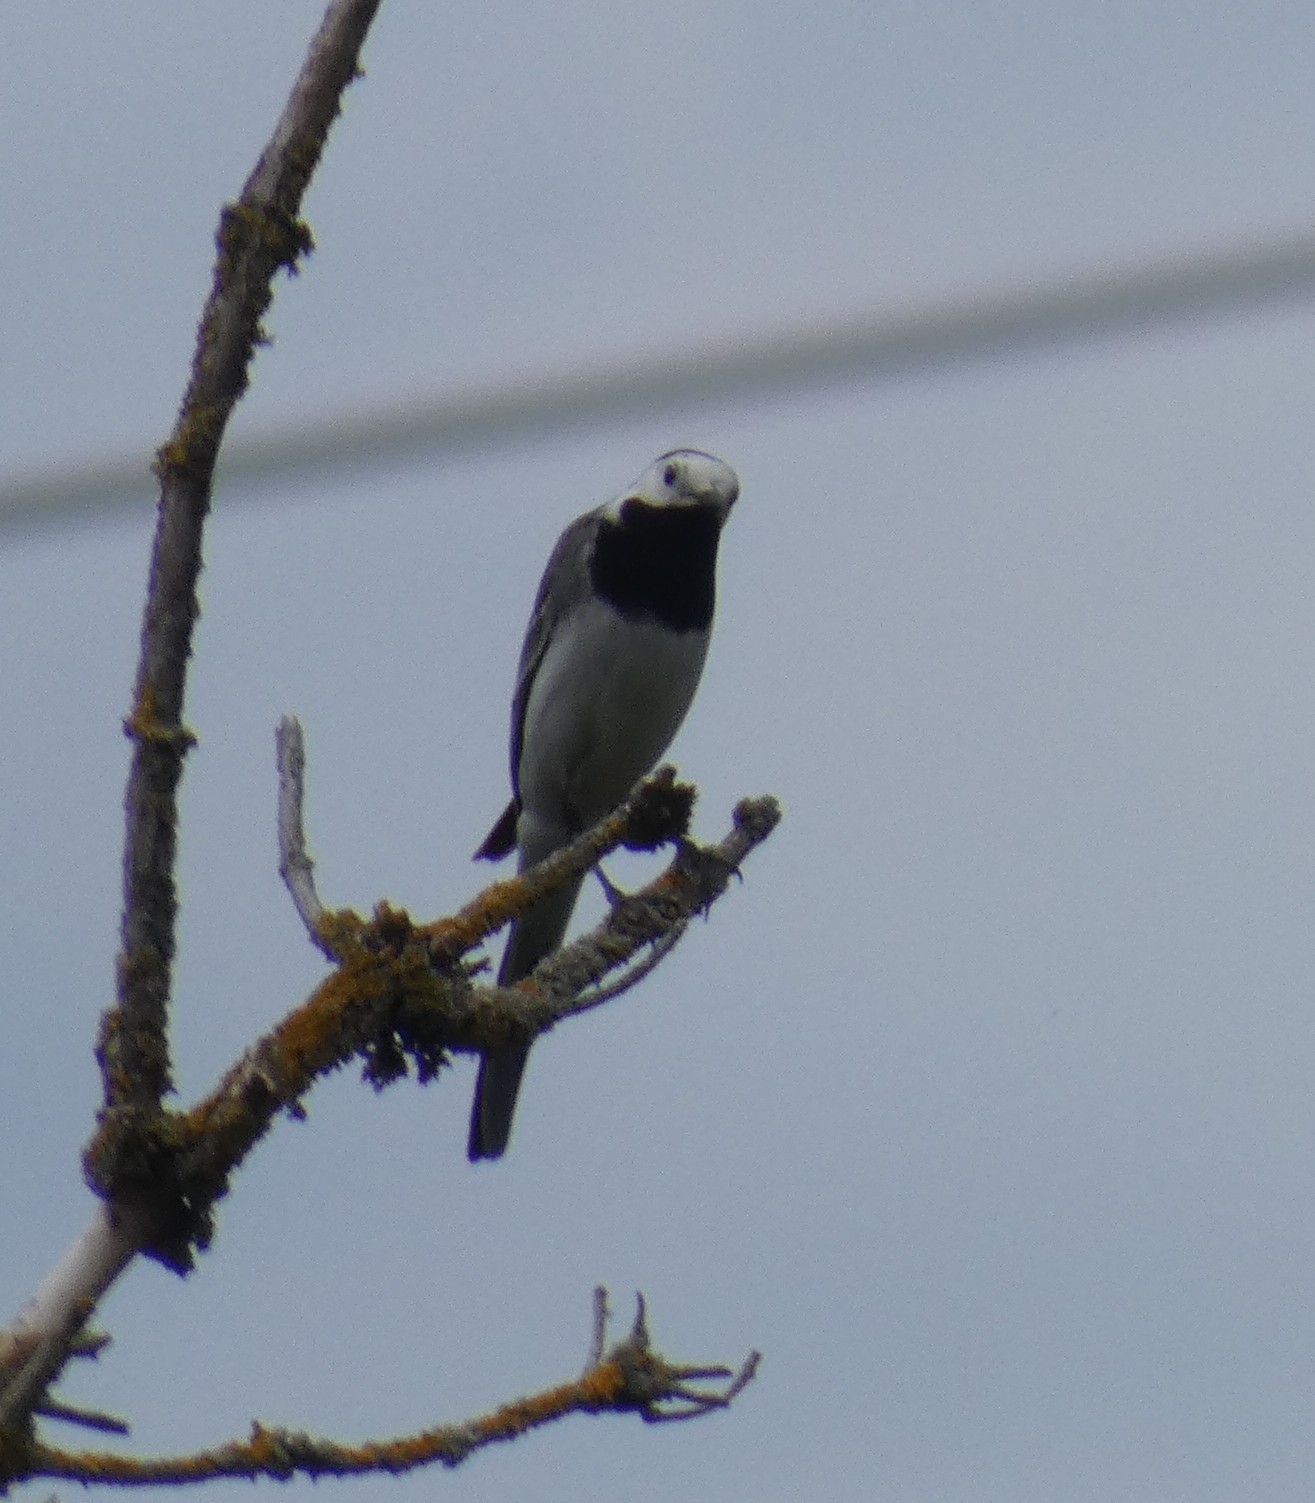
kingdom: Animalia
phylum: Chordata
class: Aves
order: Passeriformes
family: Motacillidae
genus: Motacilla
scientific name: Motacilla alba
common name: White wagtail
